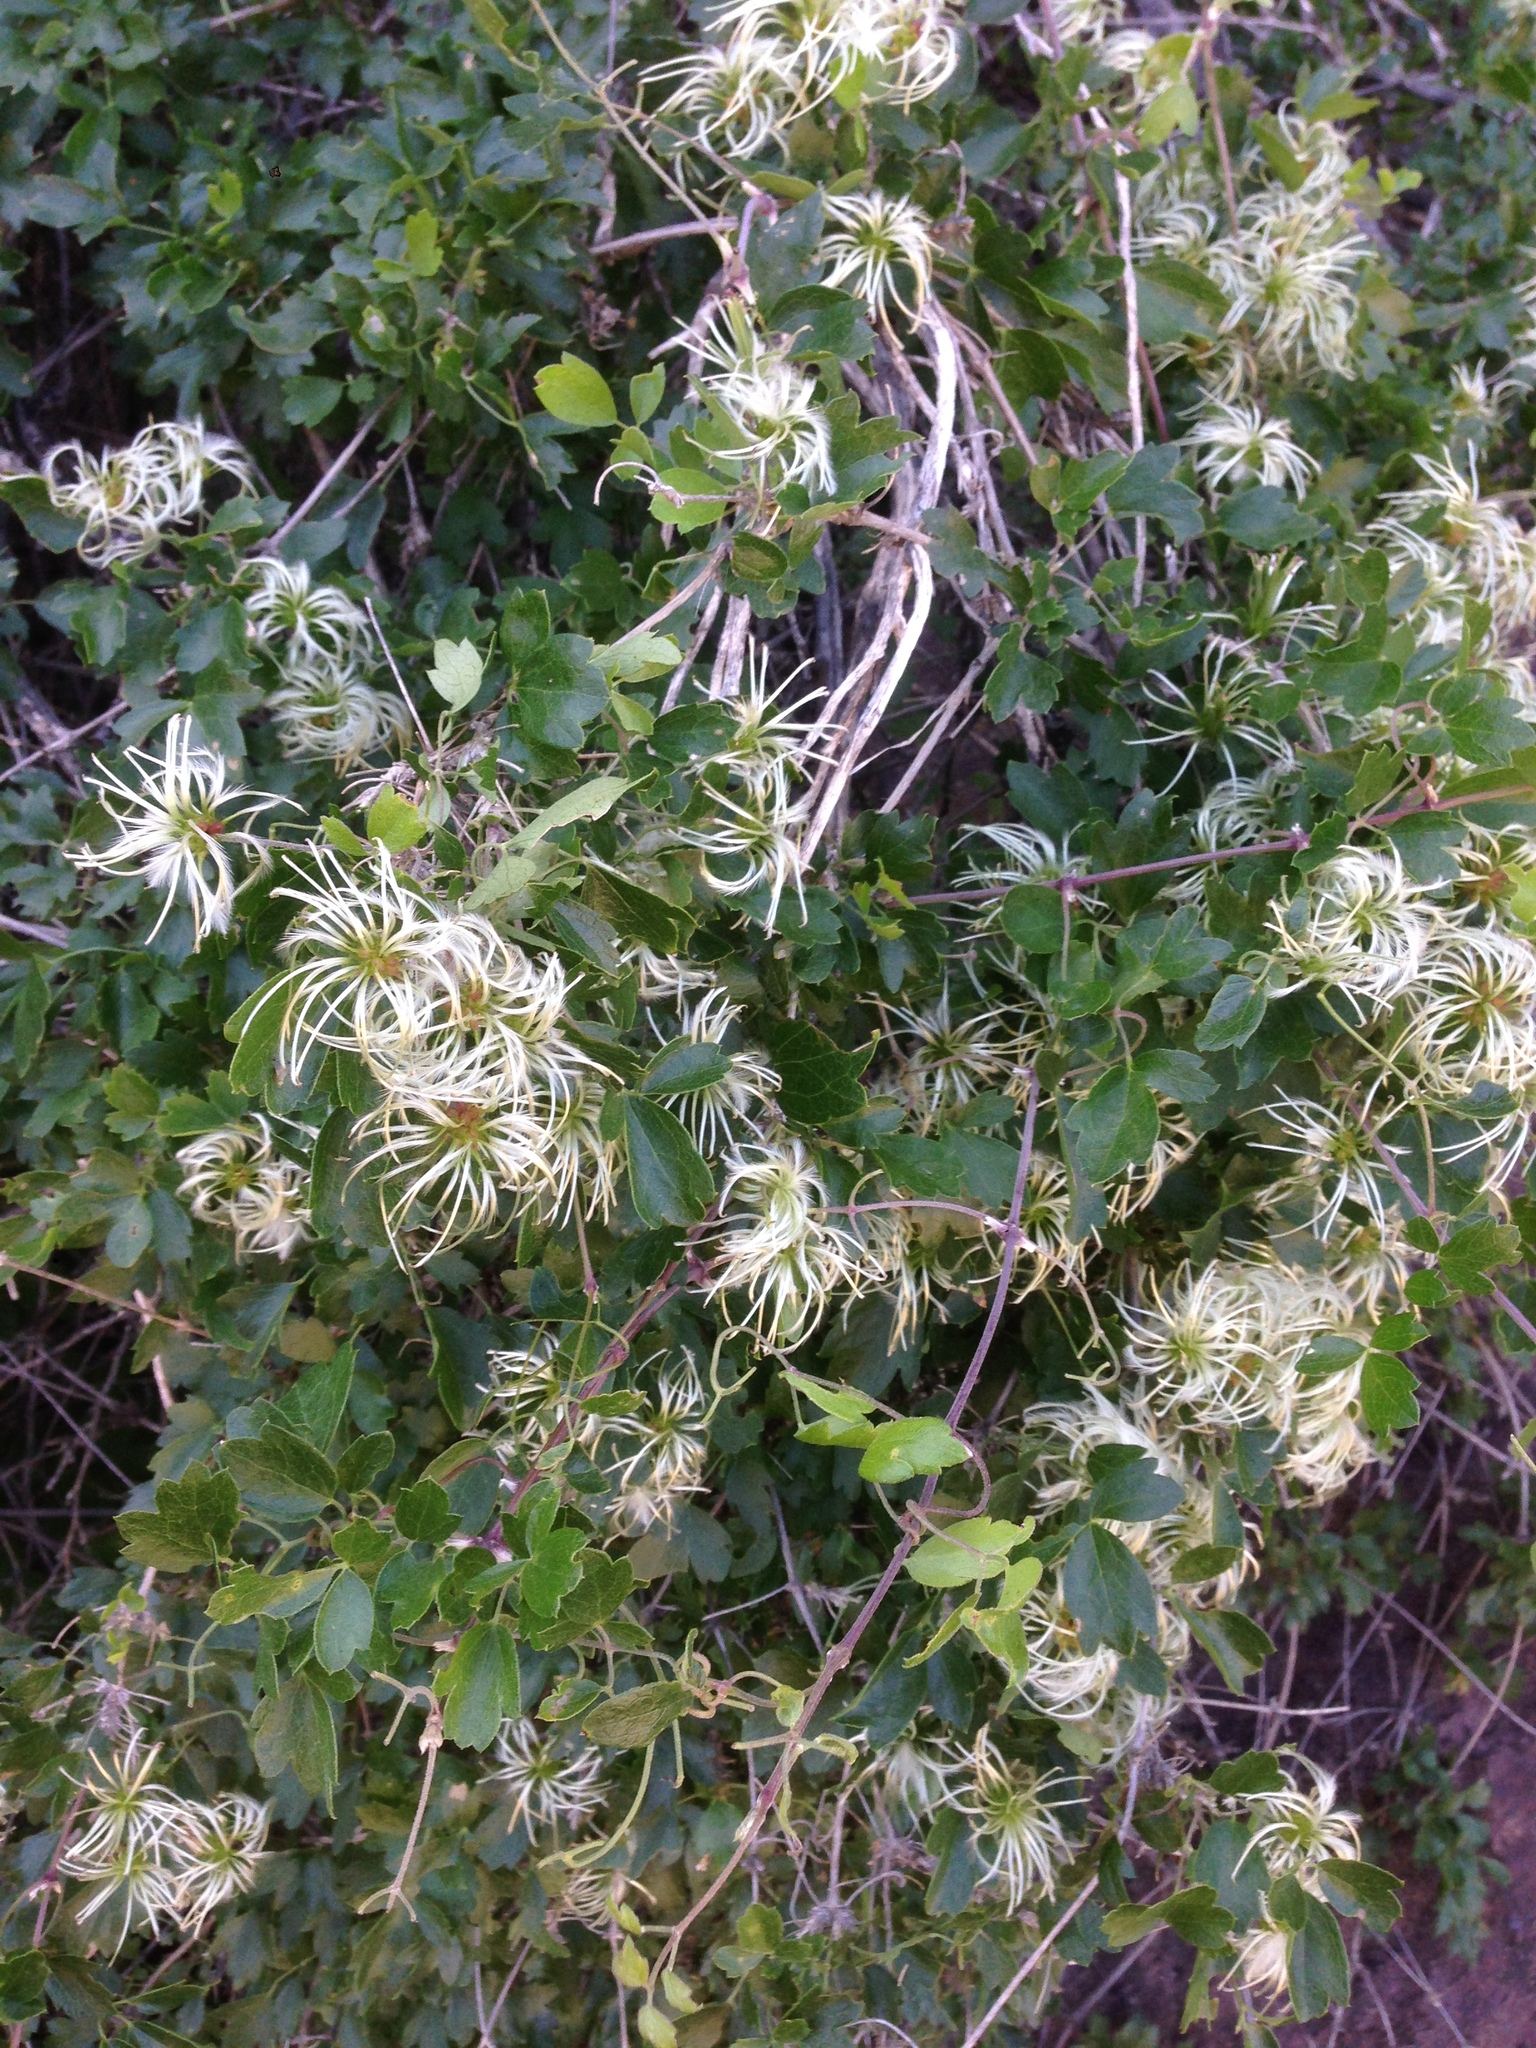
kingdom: Plantae
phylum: Tracheophyta
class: Magnoliopsida
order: Ranunculales
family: Ranunculaceae
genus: Clematis
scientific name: Clematis pauciflora
